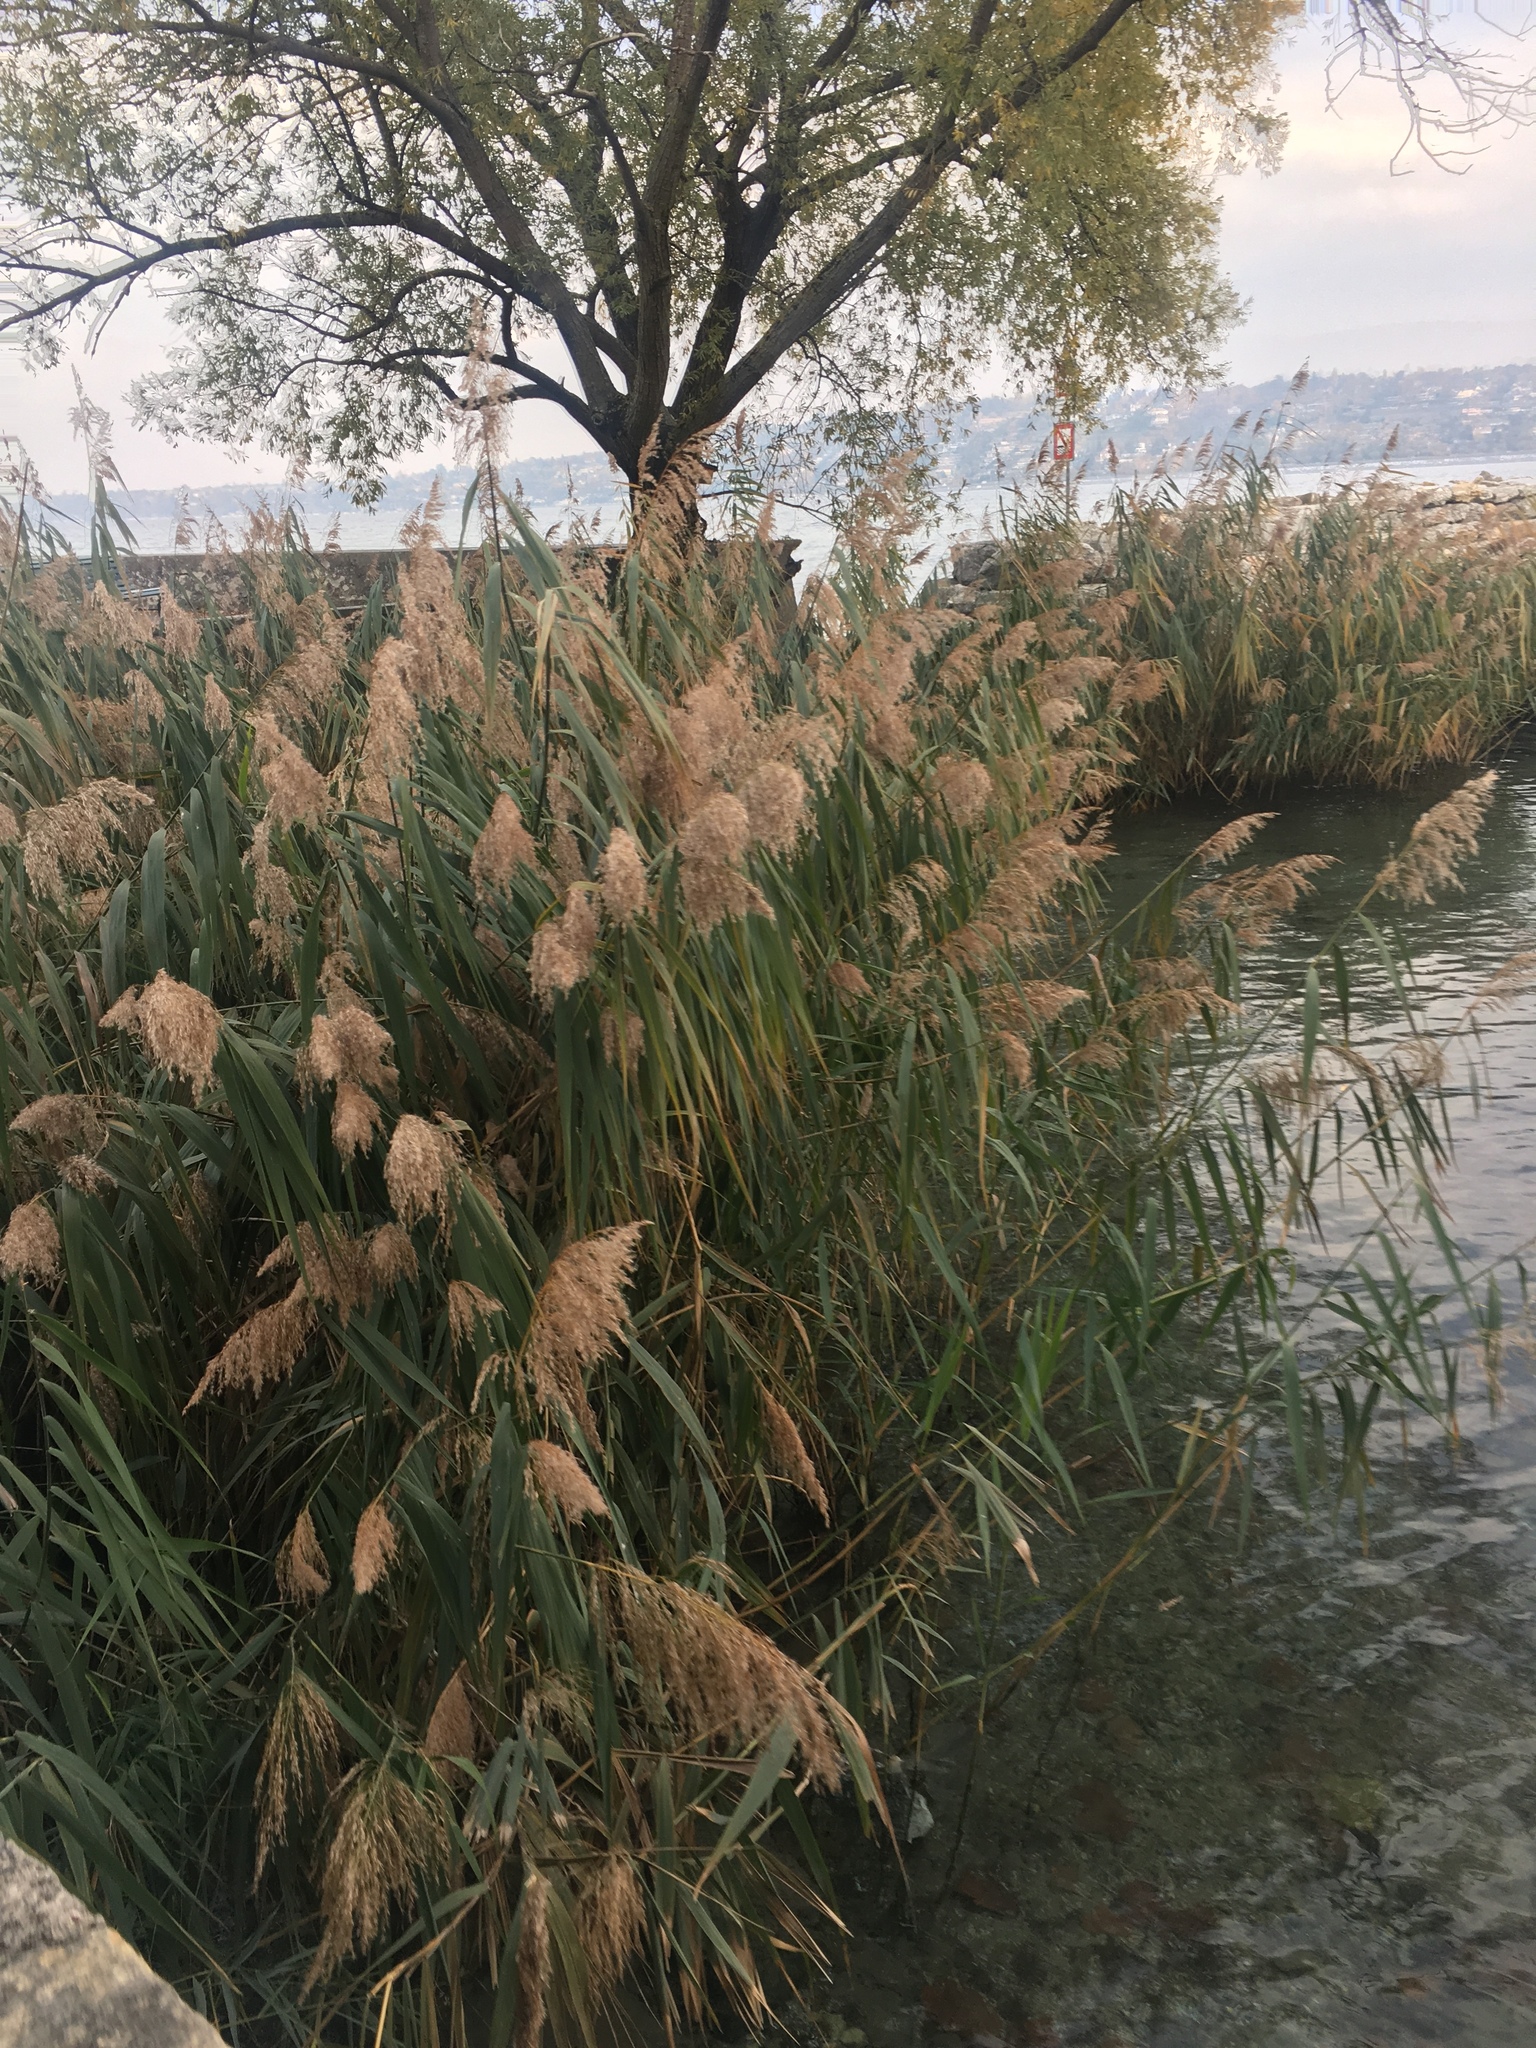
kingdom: Plantae
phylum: Tracheophyta
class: Liliopsida
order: Poales
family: Poaceae
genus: Phragmites
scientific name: Phragmites australis
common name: Common reed
